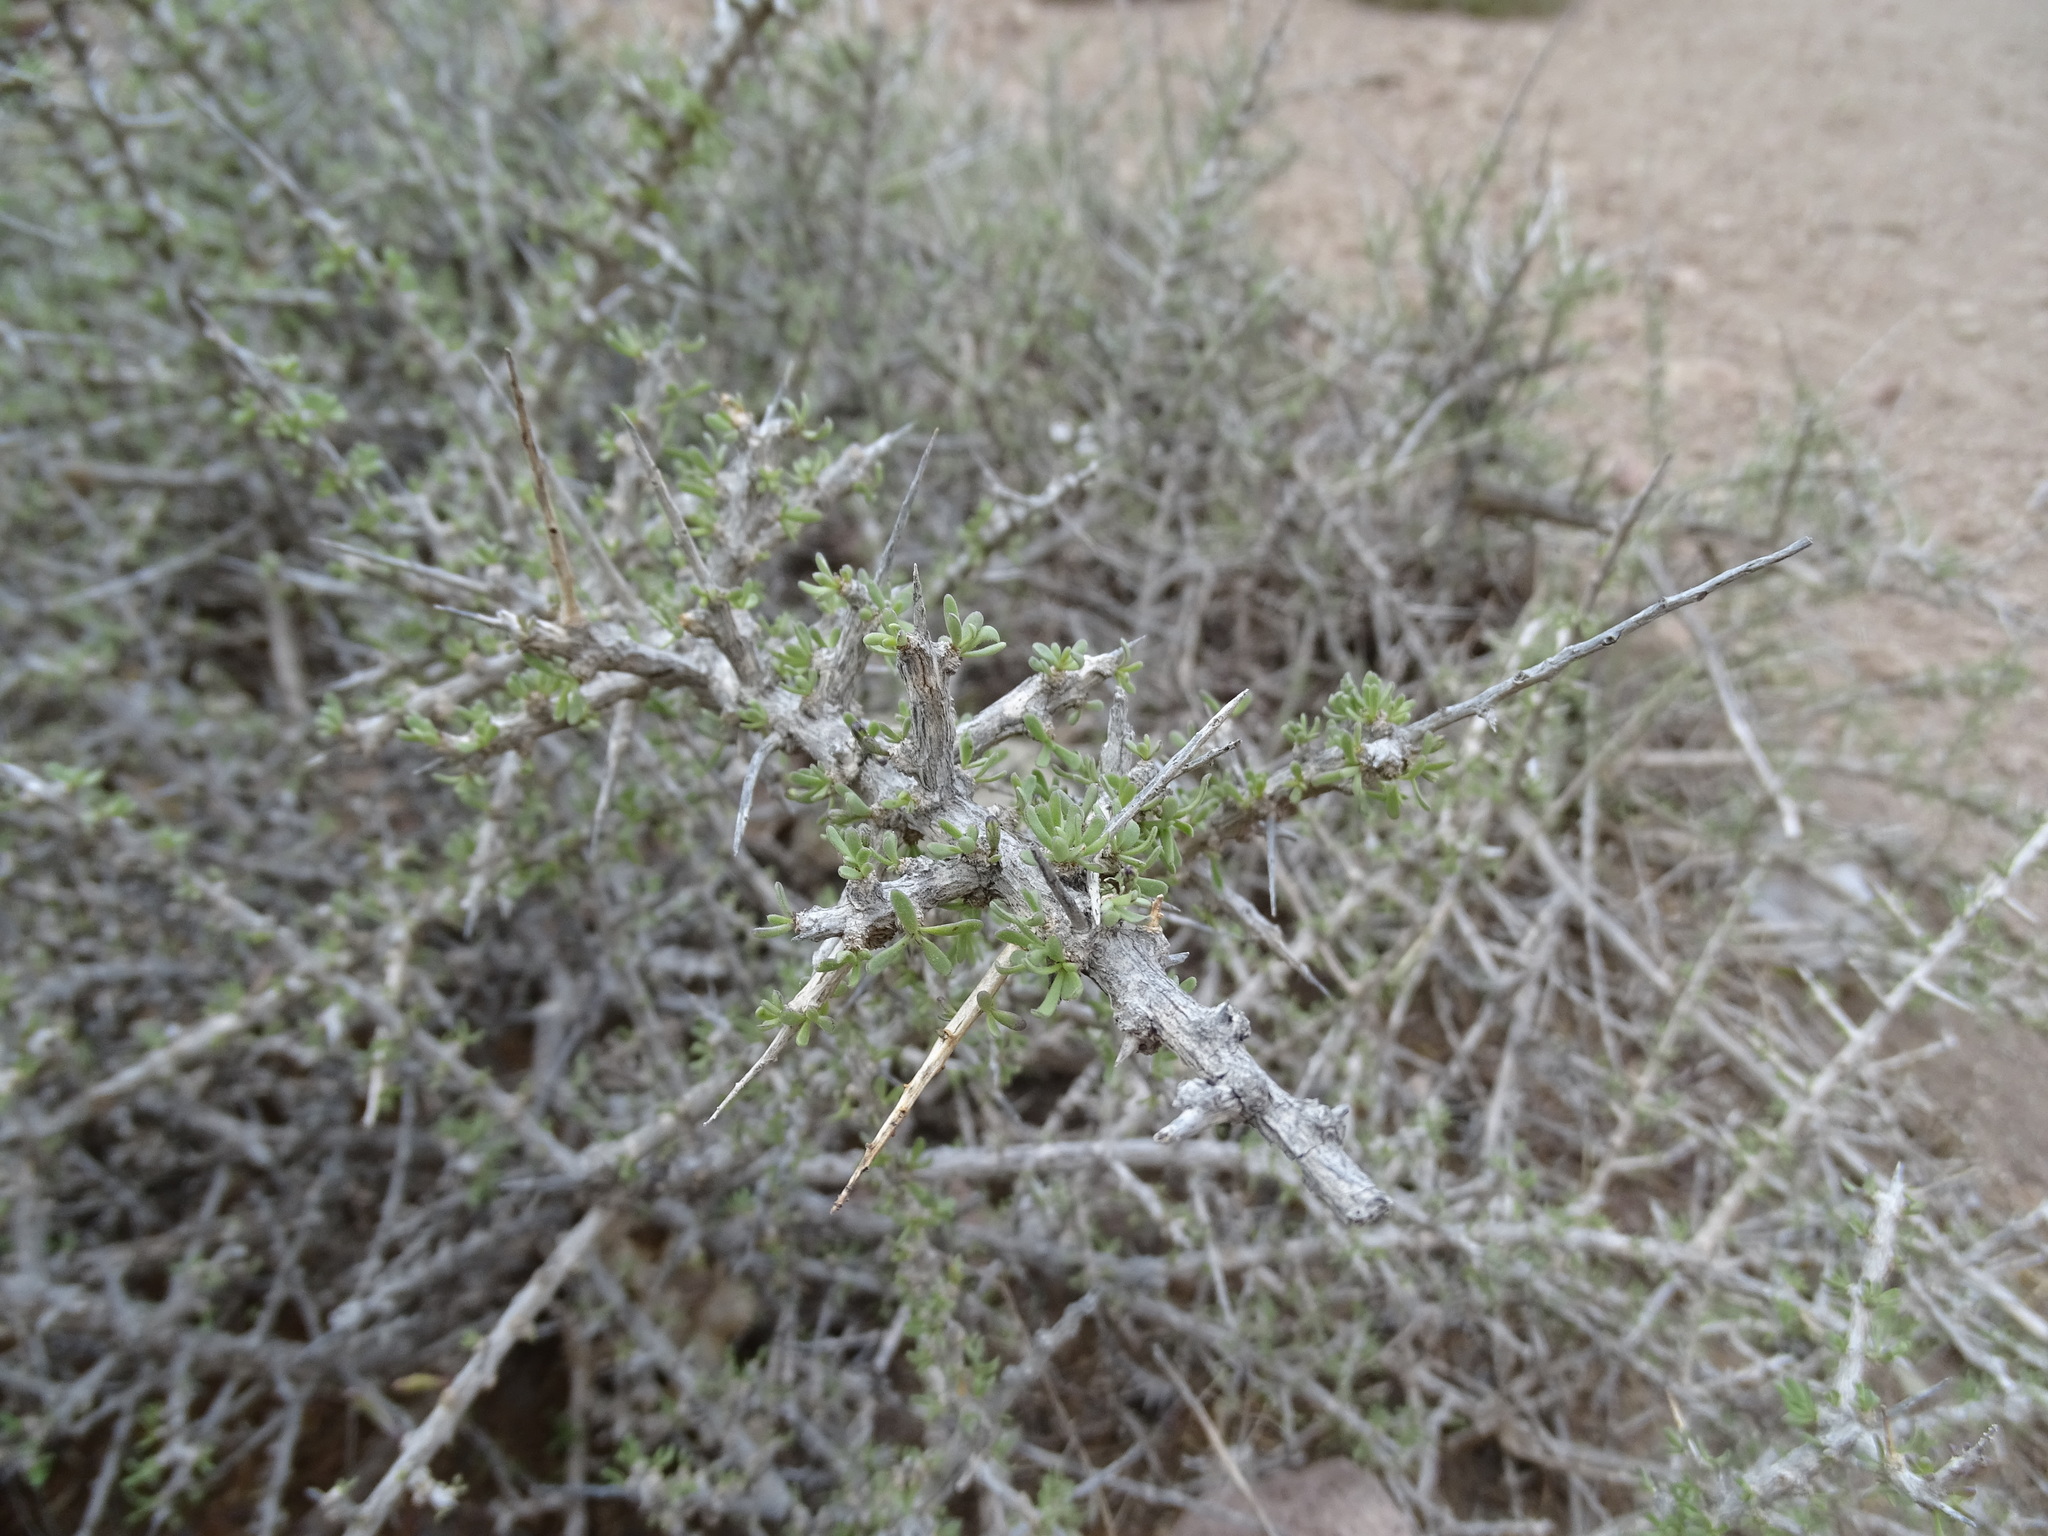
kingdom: Plantae
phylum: Tracheophyta
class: Magnoliopsida
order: Solanales
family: Solanaceae
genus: Lycium
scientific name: Lycium intricatum
